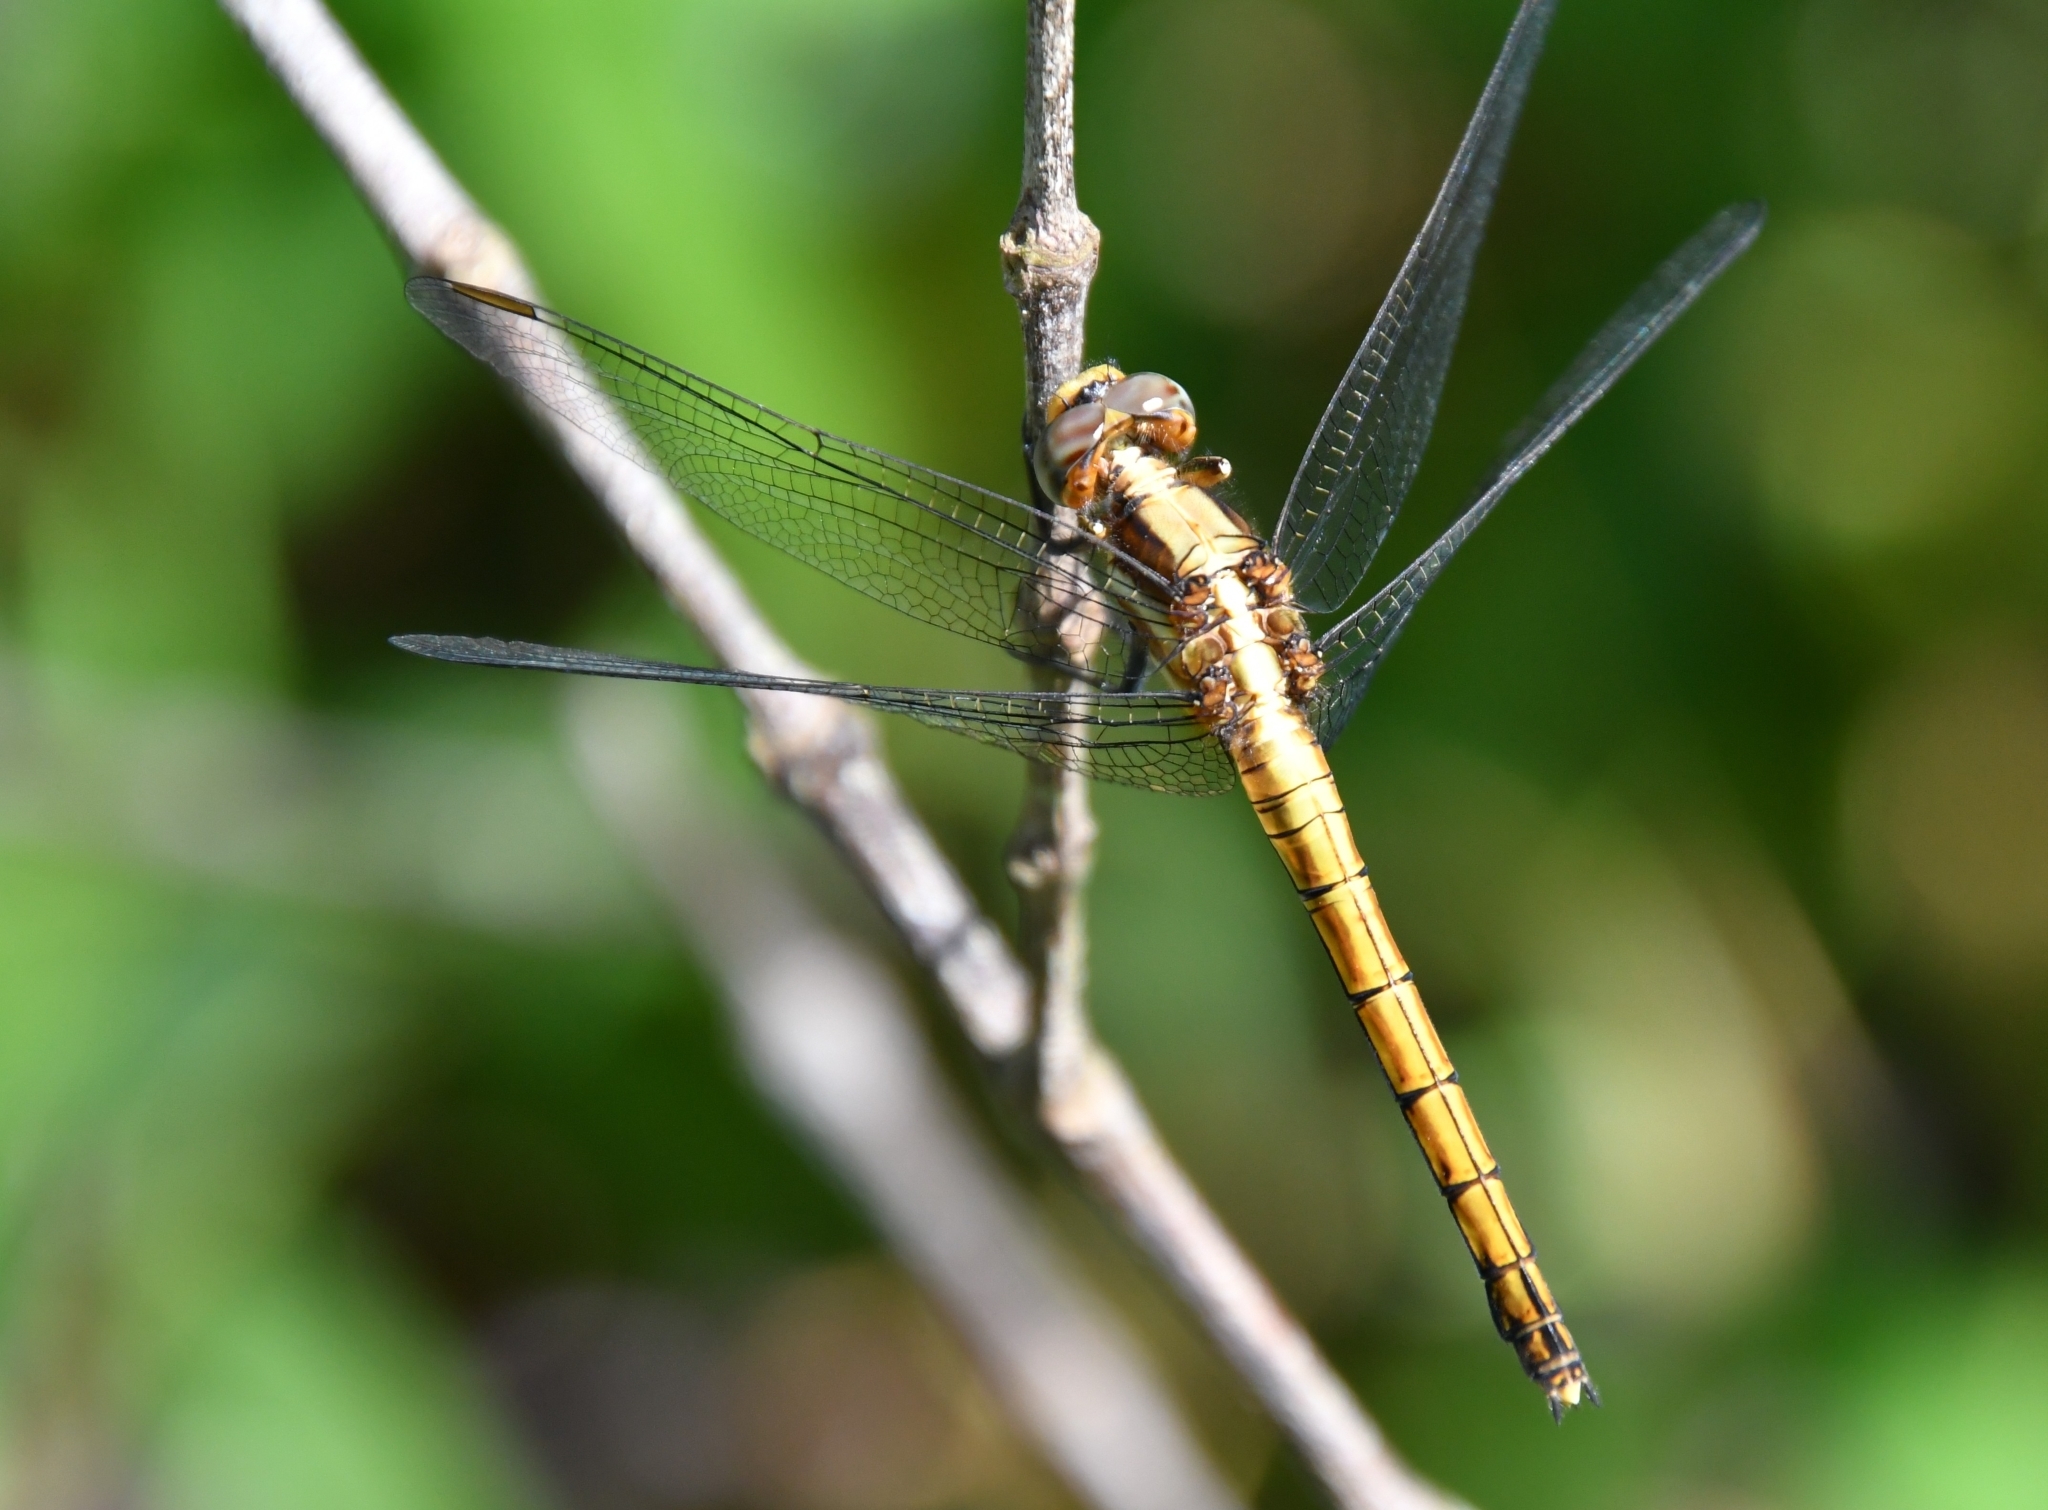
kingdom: Animalia
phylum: Arthropoda
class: Insecta
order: Odonata
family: Libellulidae
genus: Orthetrum
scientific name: Orthetrum glaucum
